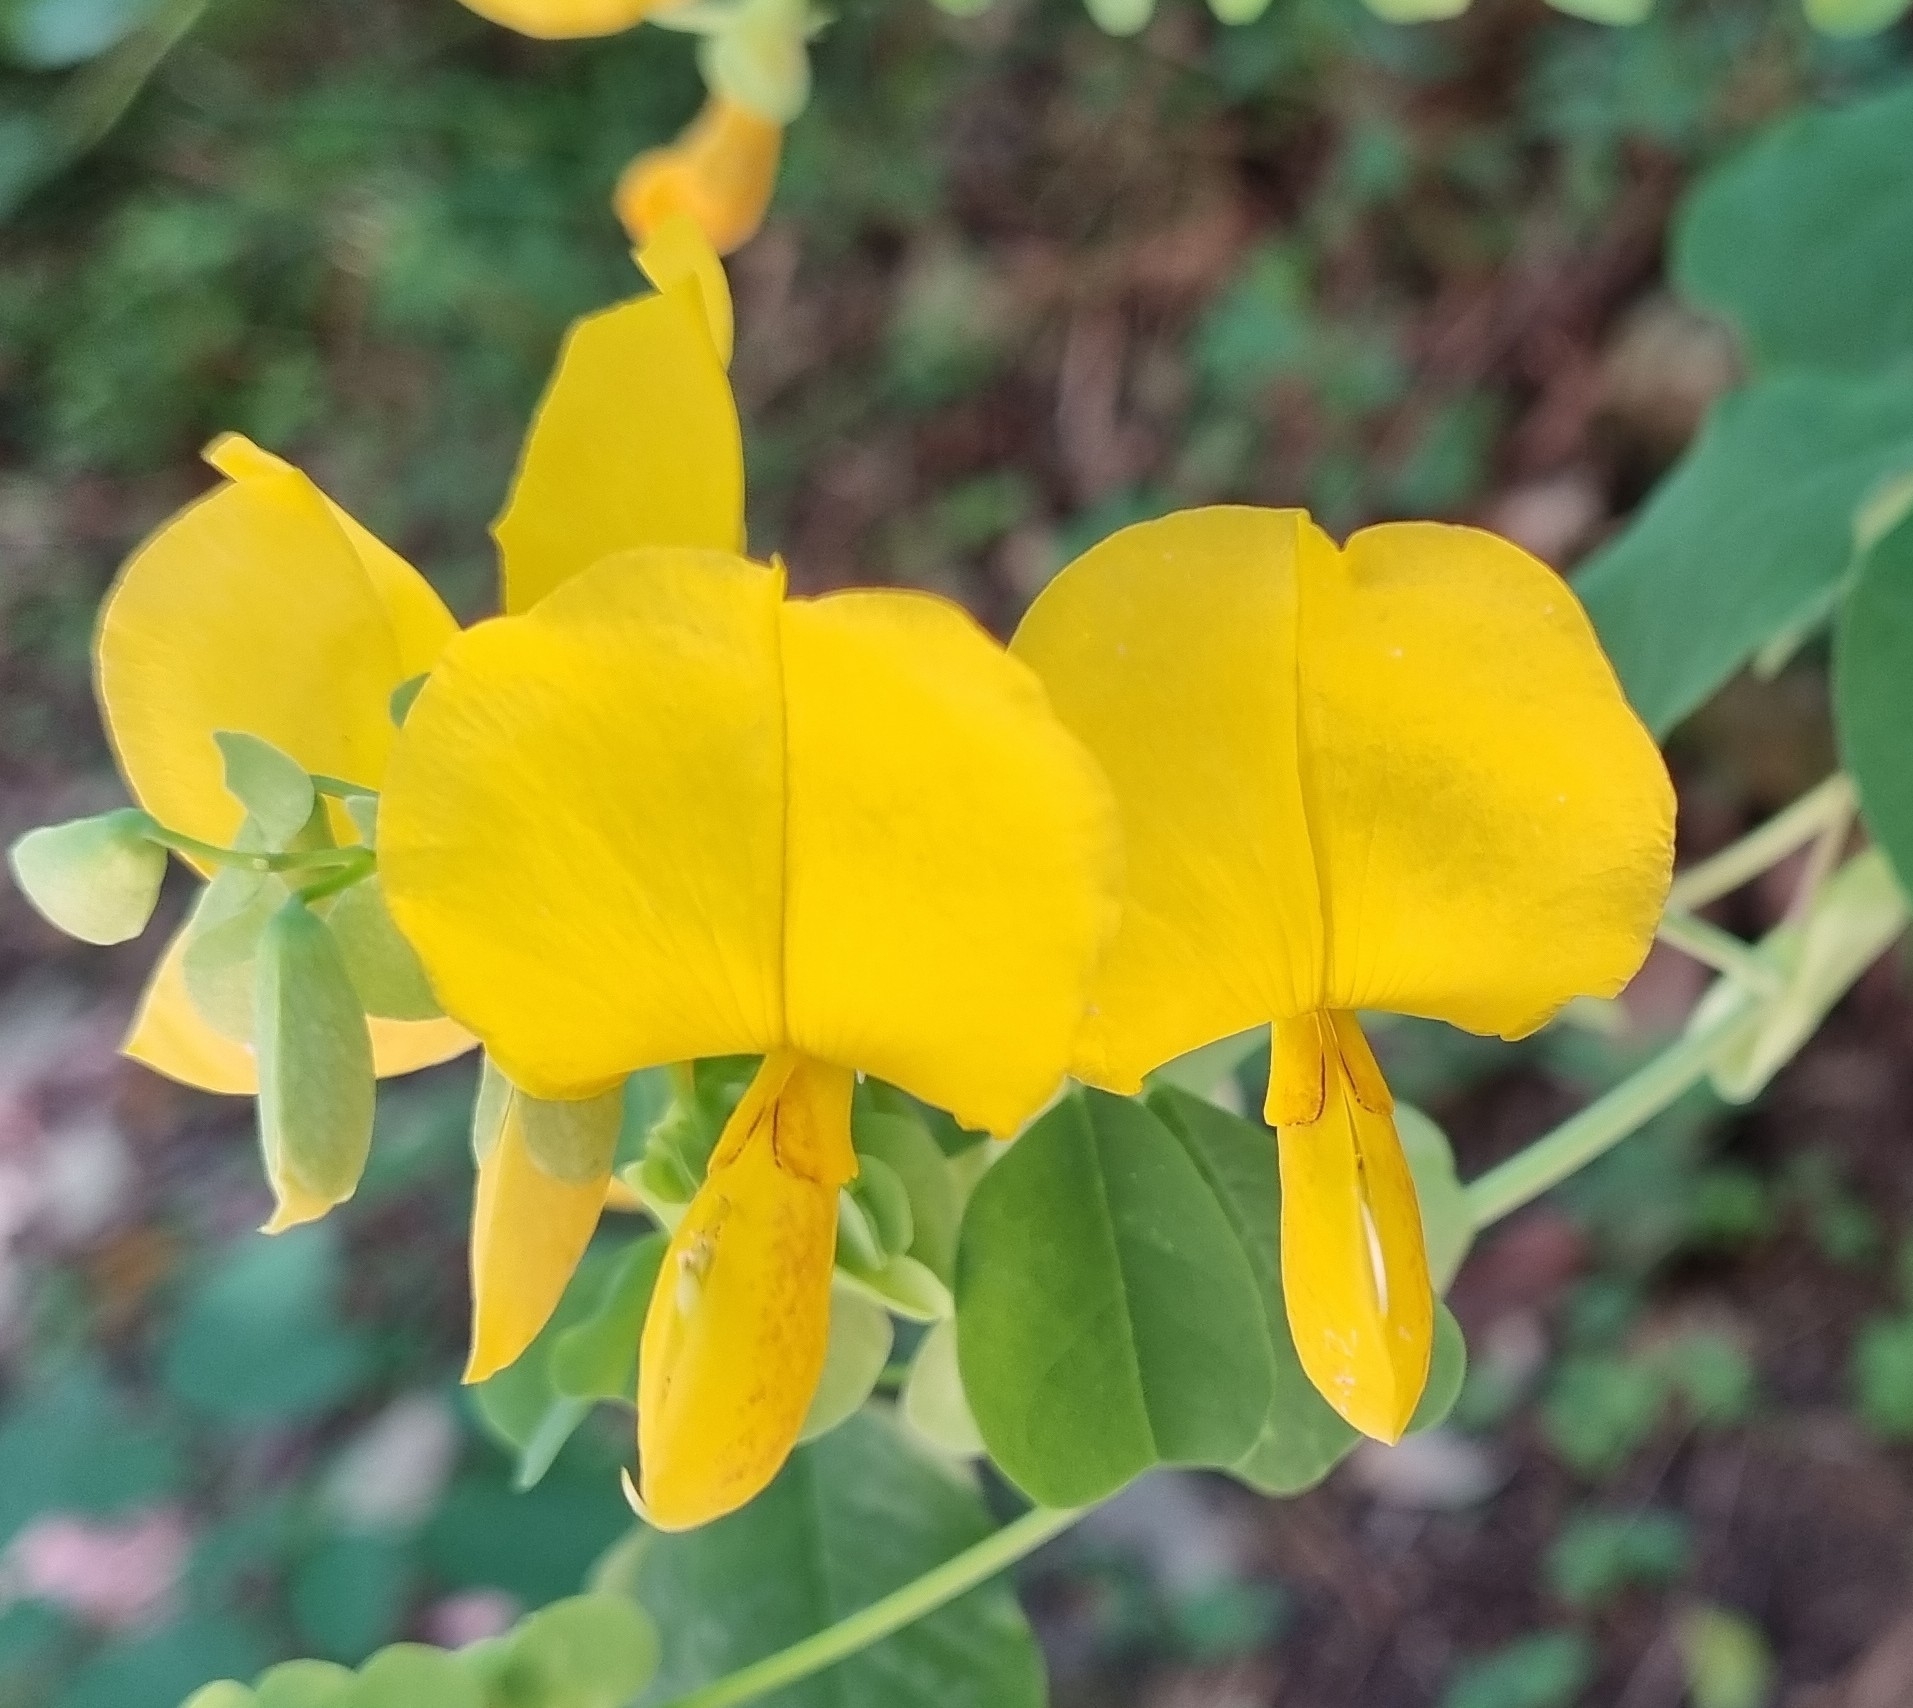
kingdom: Plantae
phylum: Tracheophyta
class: Magnoliopsida
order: Fabales
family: Fabaceae
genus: Amicia
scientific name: Amicia zygomeris
